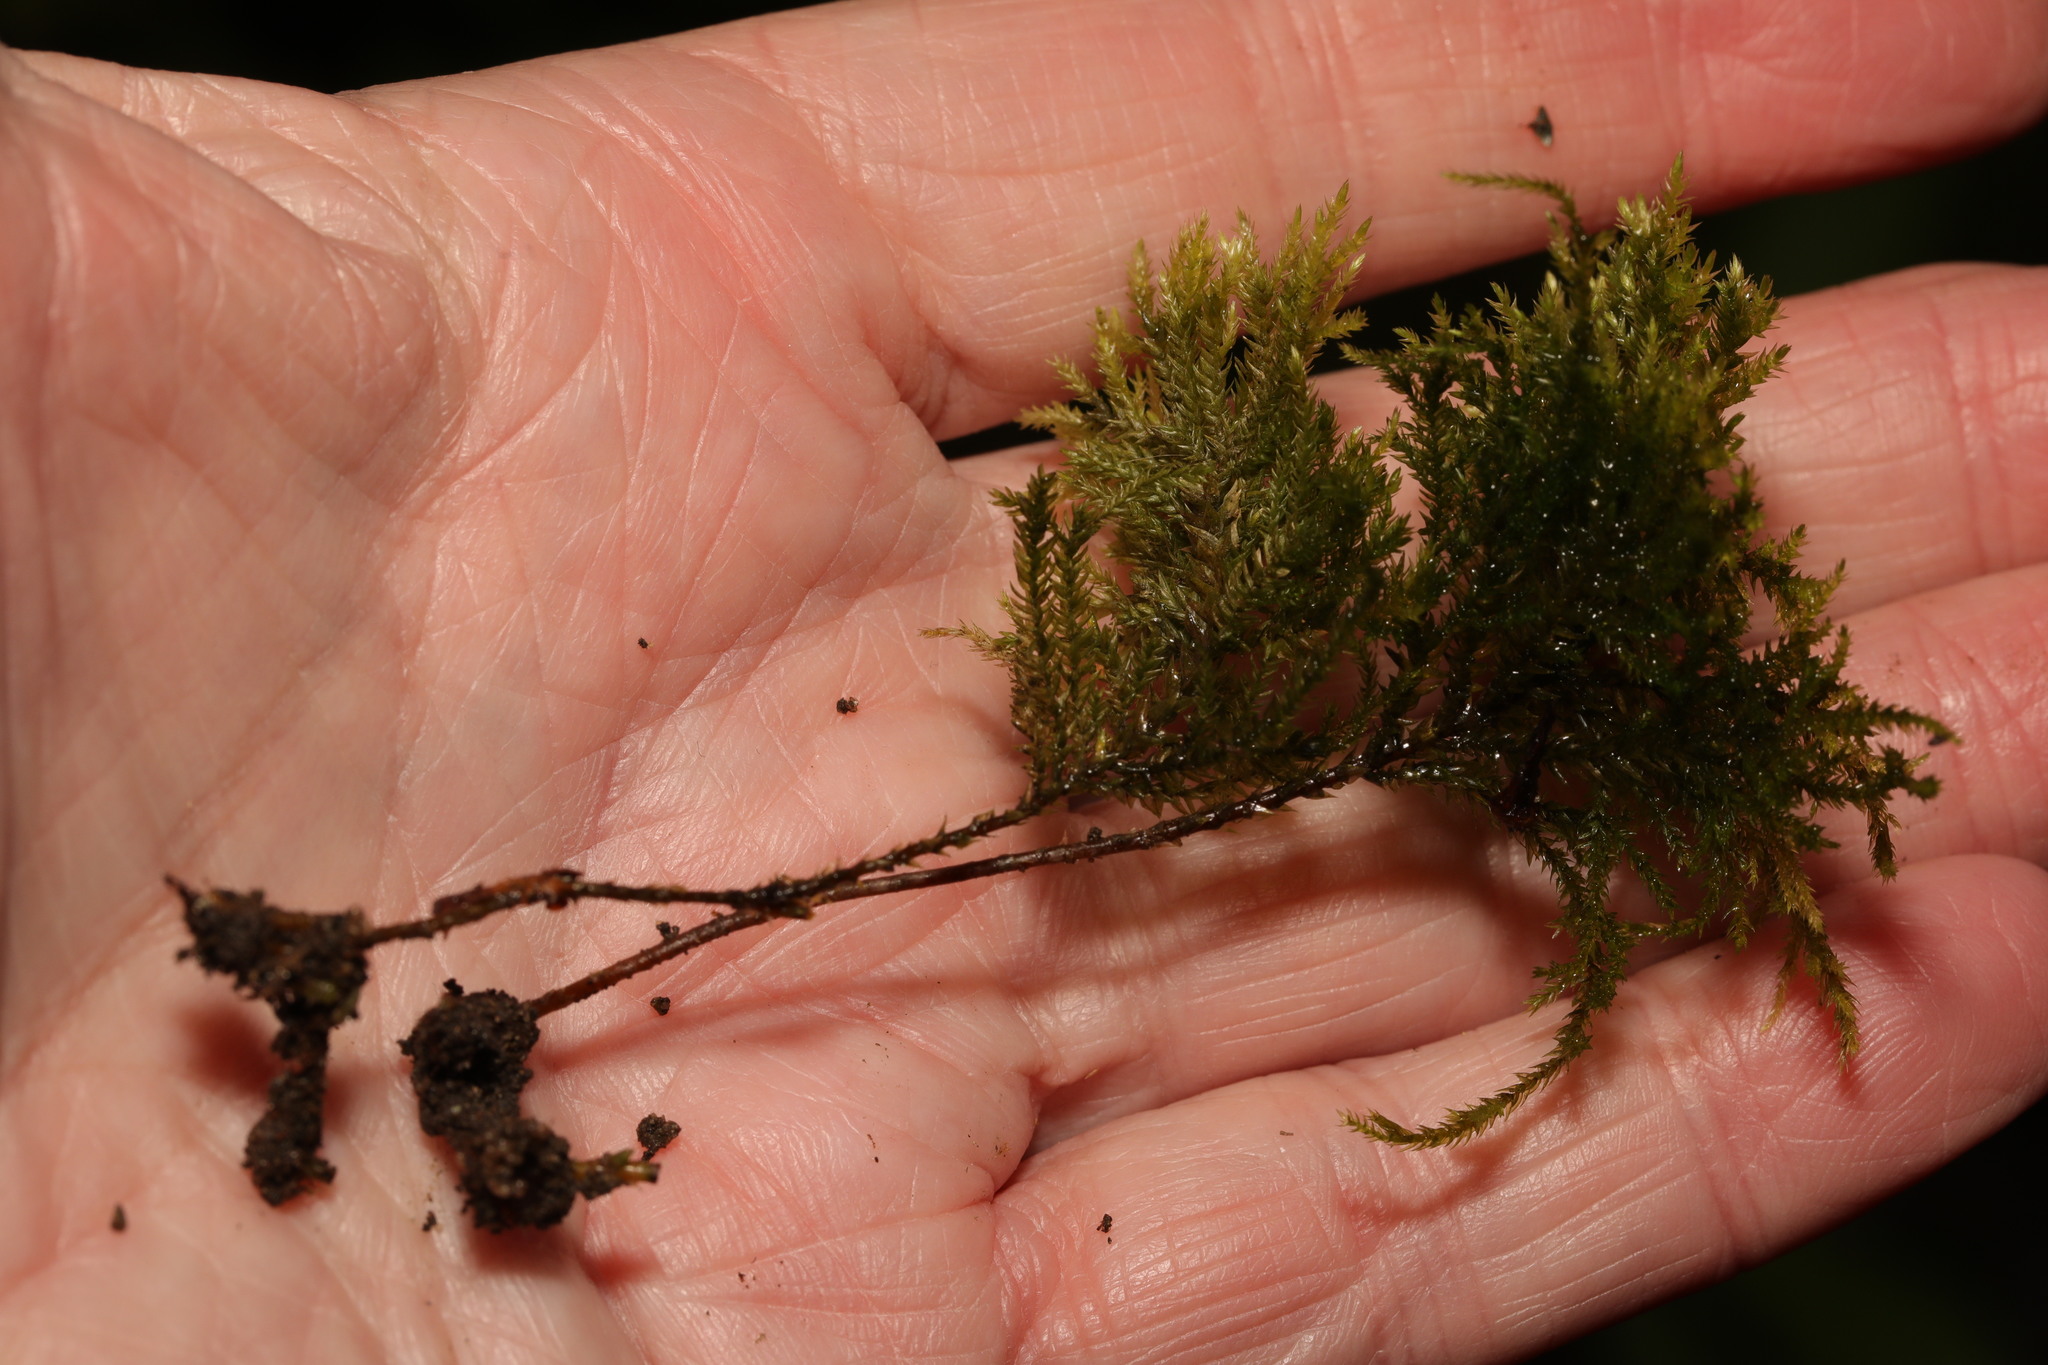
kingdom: Plantae
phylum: Bryophyta
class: Bryopsida
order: Hypnales
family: Neckeraceae
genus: Thamnobryum
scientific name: Thamnobryum alopecurum
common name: Fox-tail feather-moss
